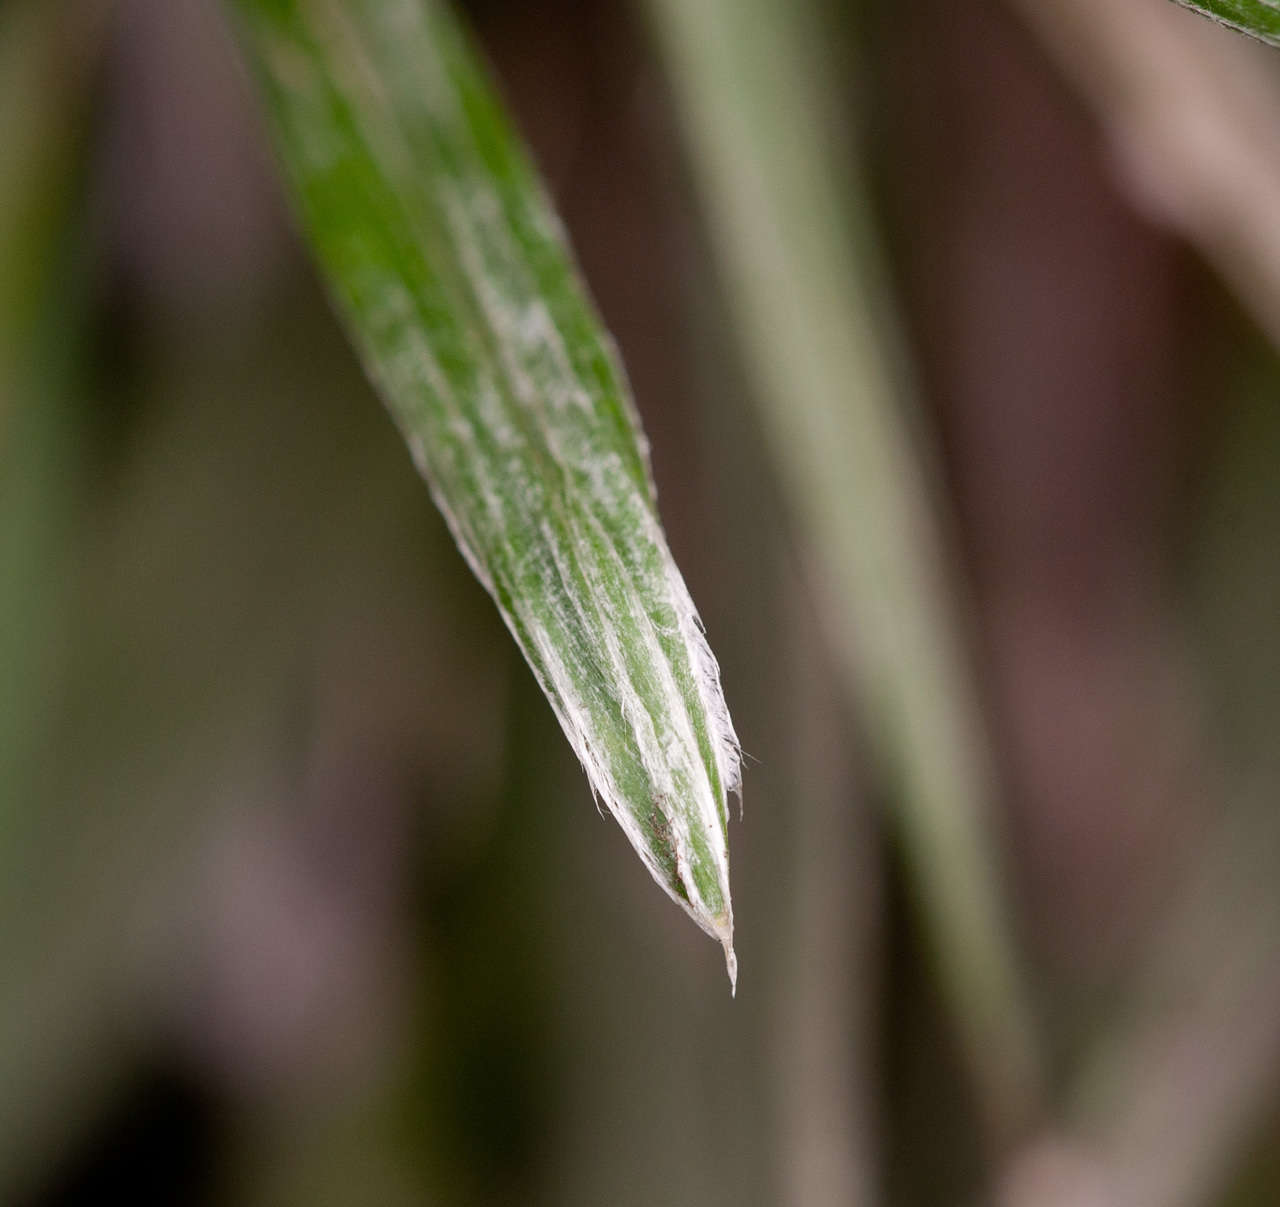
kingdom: Plantae
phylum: Tracheophyta
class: Magnoliopsida
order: Asterales
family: Asteraceae
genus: Celmisia
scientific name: Celmisia pugioniformis
